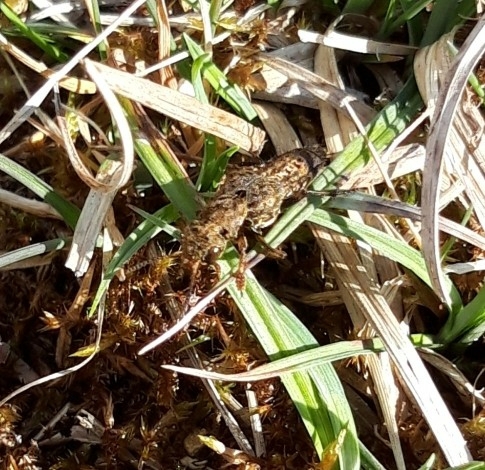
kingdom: Animalia
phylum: Arthropoda
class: Insecta
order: Coleoptera
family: Staphylinidae
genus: Ontholestes
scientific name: Ontholestes tessellatus
